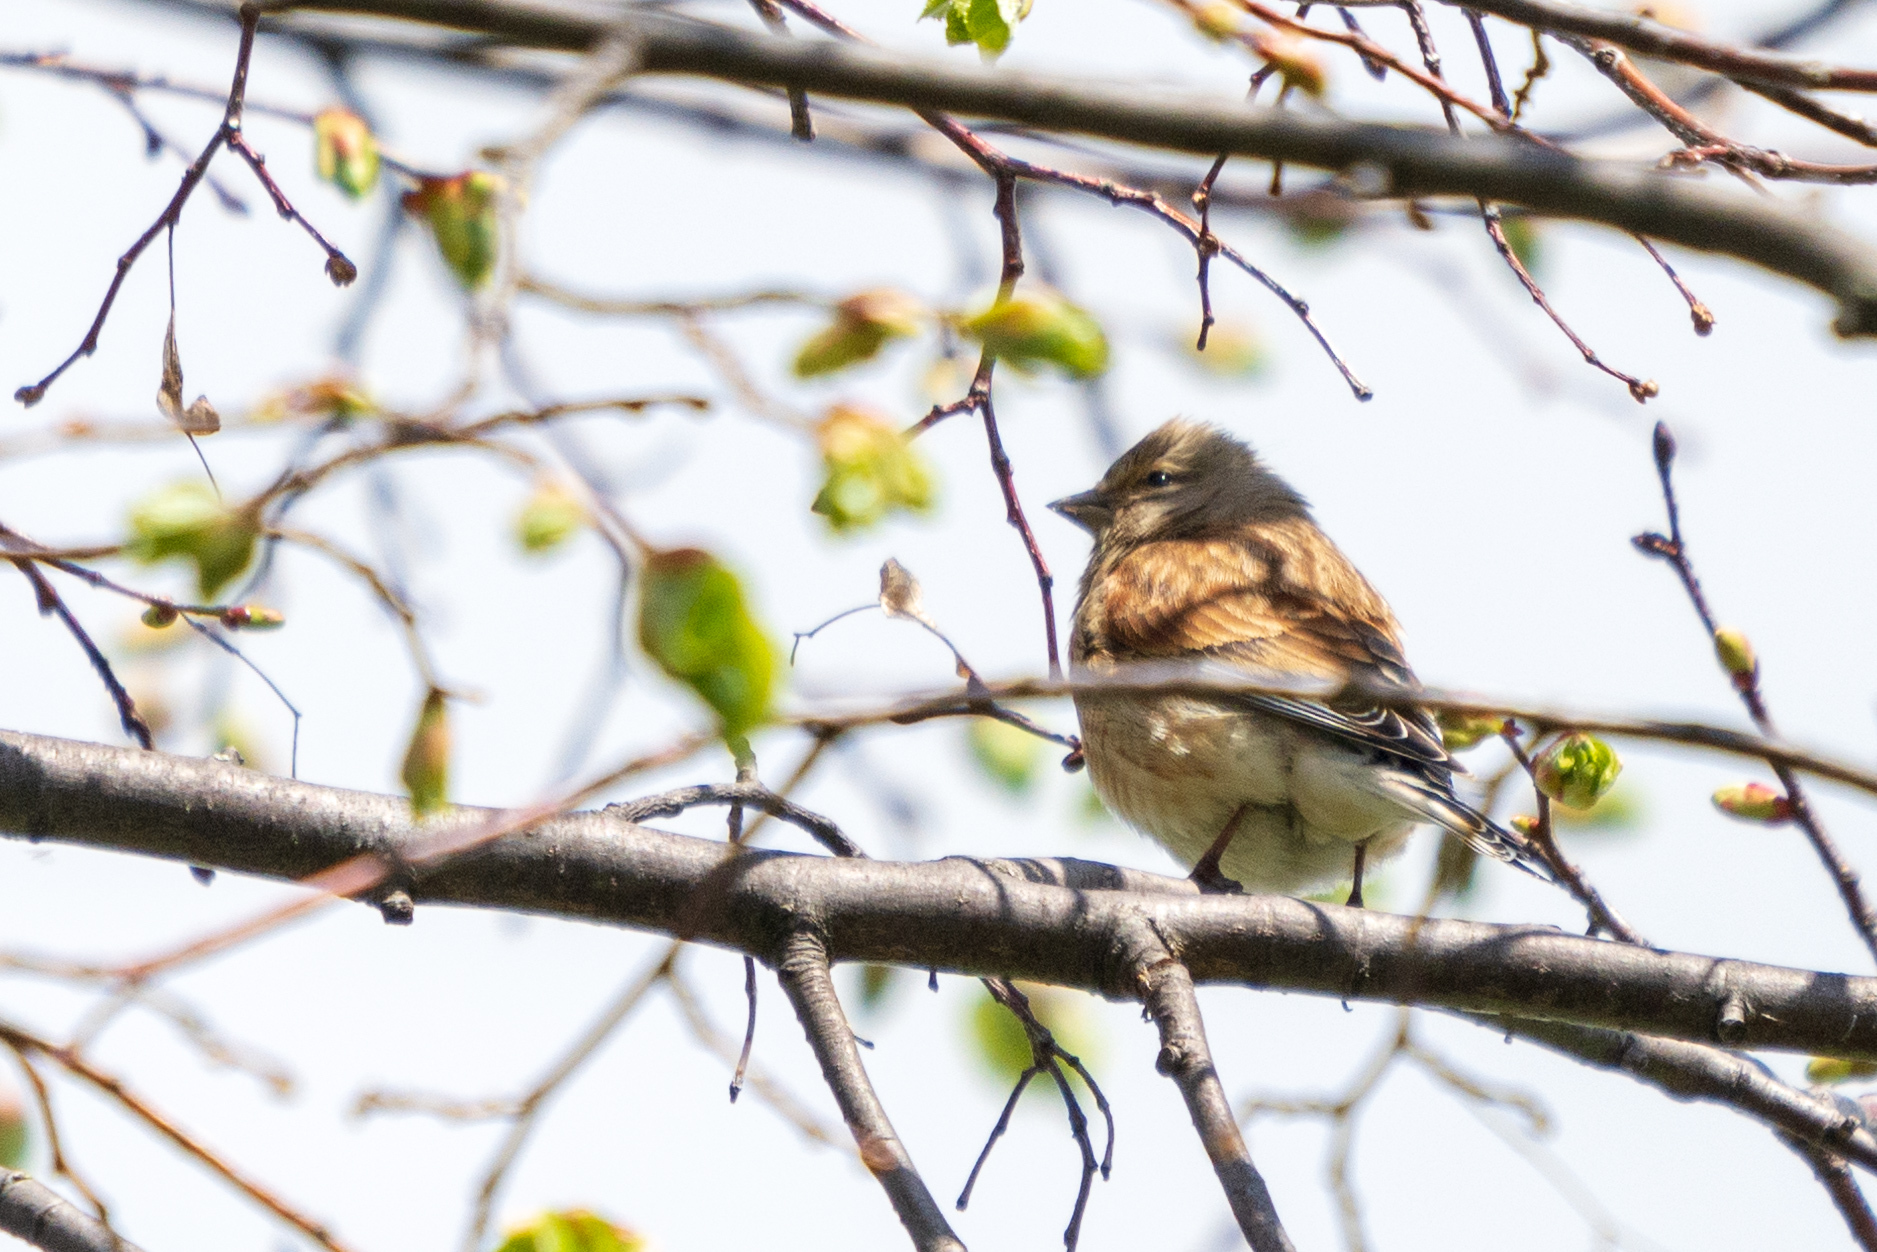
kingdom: Animalia
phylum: Chordata
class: Aves
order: Passeriformes
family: Fringillidae
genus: Linaria
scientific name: Linaria cannabina
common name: Common linnet
